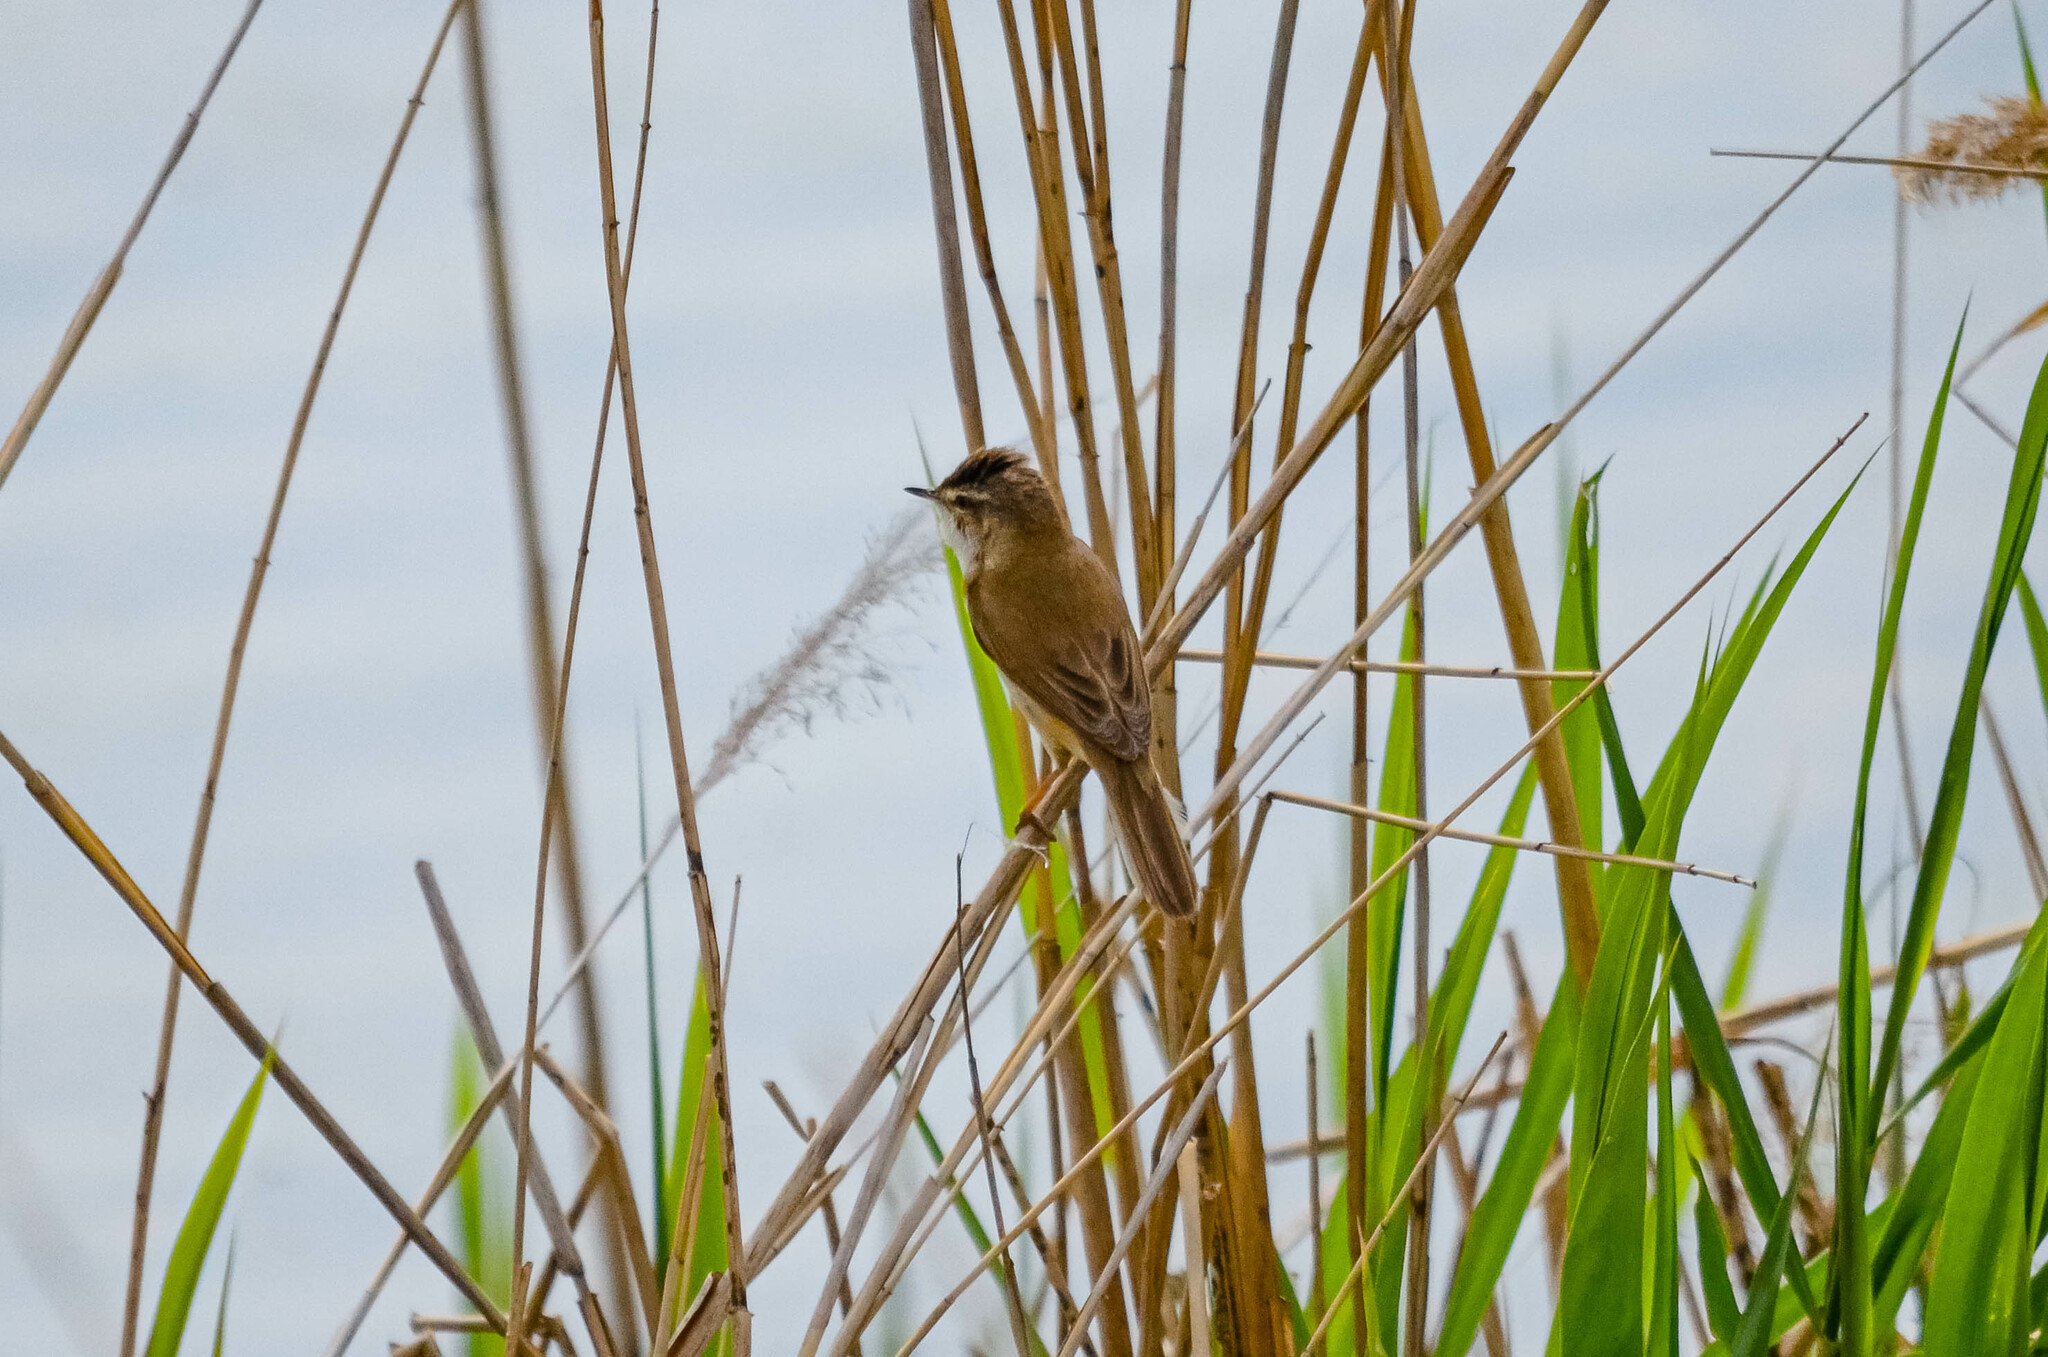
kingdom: Animalia
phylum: Chordata
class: Aves
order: Passeriformes
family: Acrocephalidae
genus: Acrocephalus
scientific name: Acrocephalus agricola
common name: Paddyfield warbler
